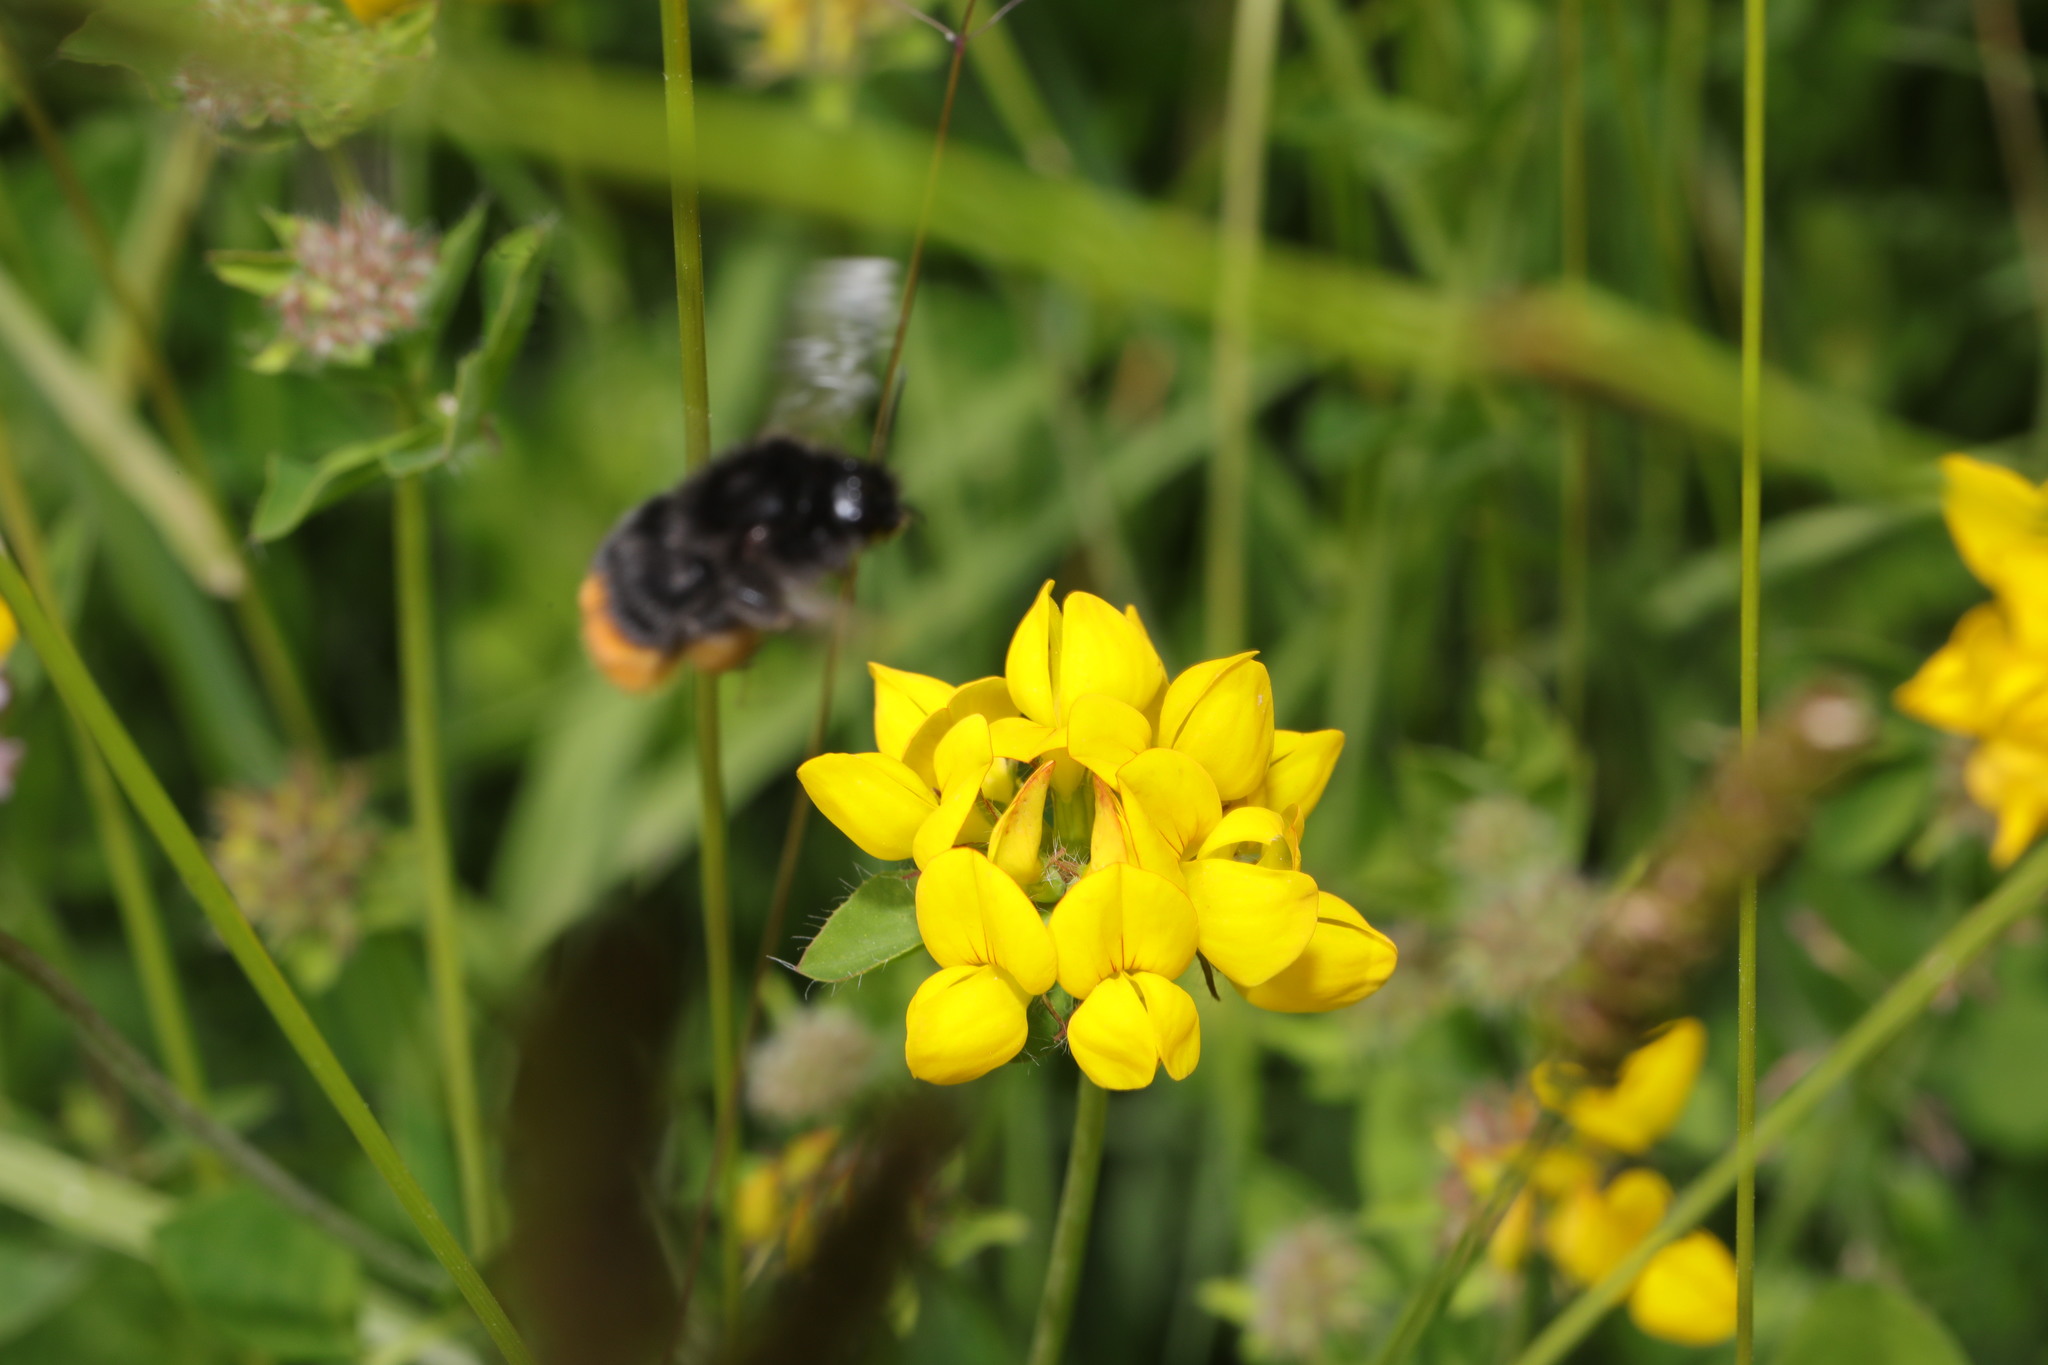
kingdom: Animalia
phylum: Arthropoda
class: Insecta
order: Hymenoptera
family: Apidae
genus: Bombus
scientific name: Bombus lapidarius
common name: Large red-tailed humble-bee
